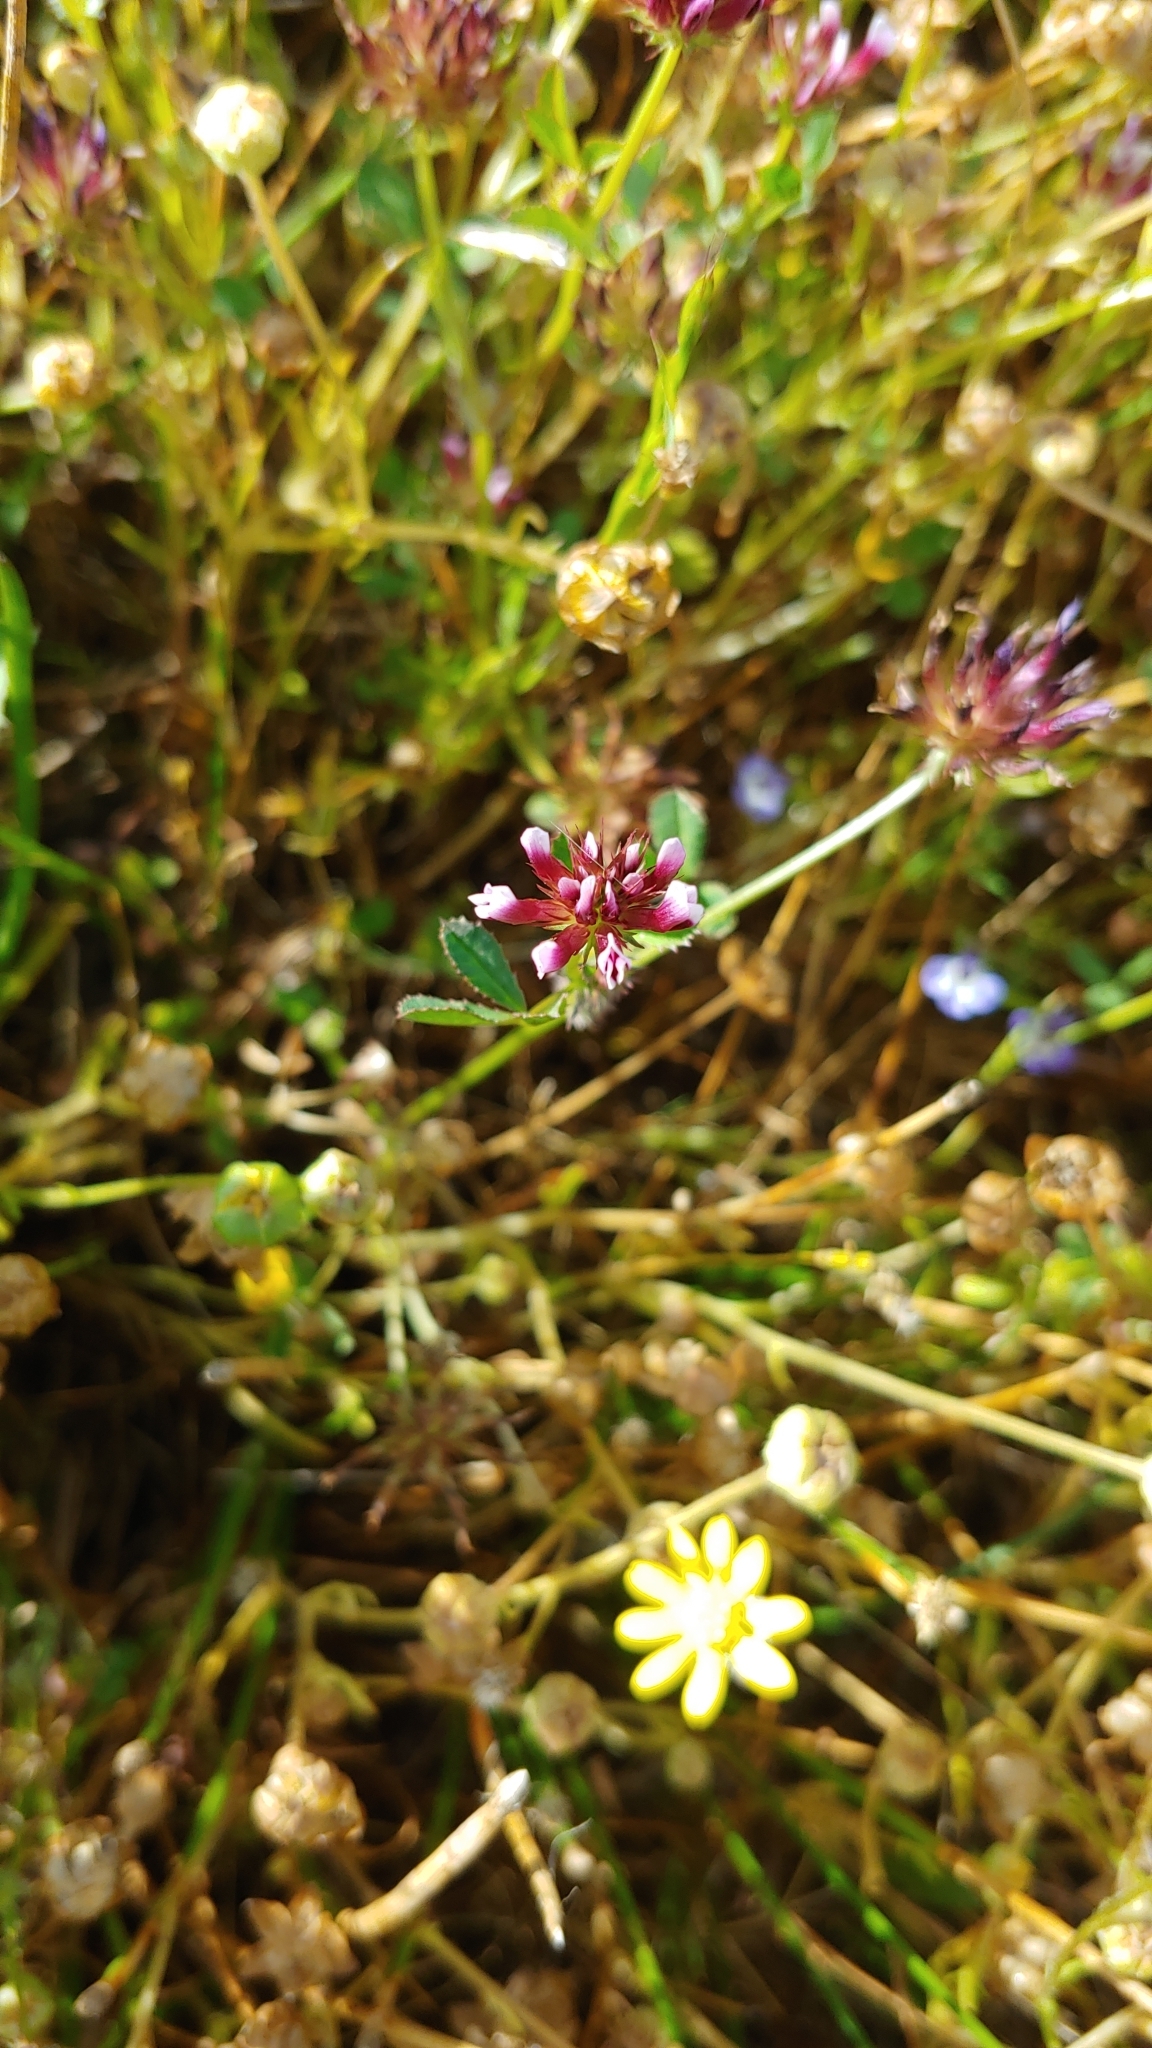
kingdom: Plantae
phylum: Tracheophyta
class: Magnoliopsida
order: Fabales
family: Fabaceae
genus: Trifolium
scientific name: Trifolium variegatum
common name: Whitetip clover
